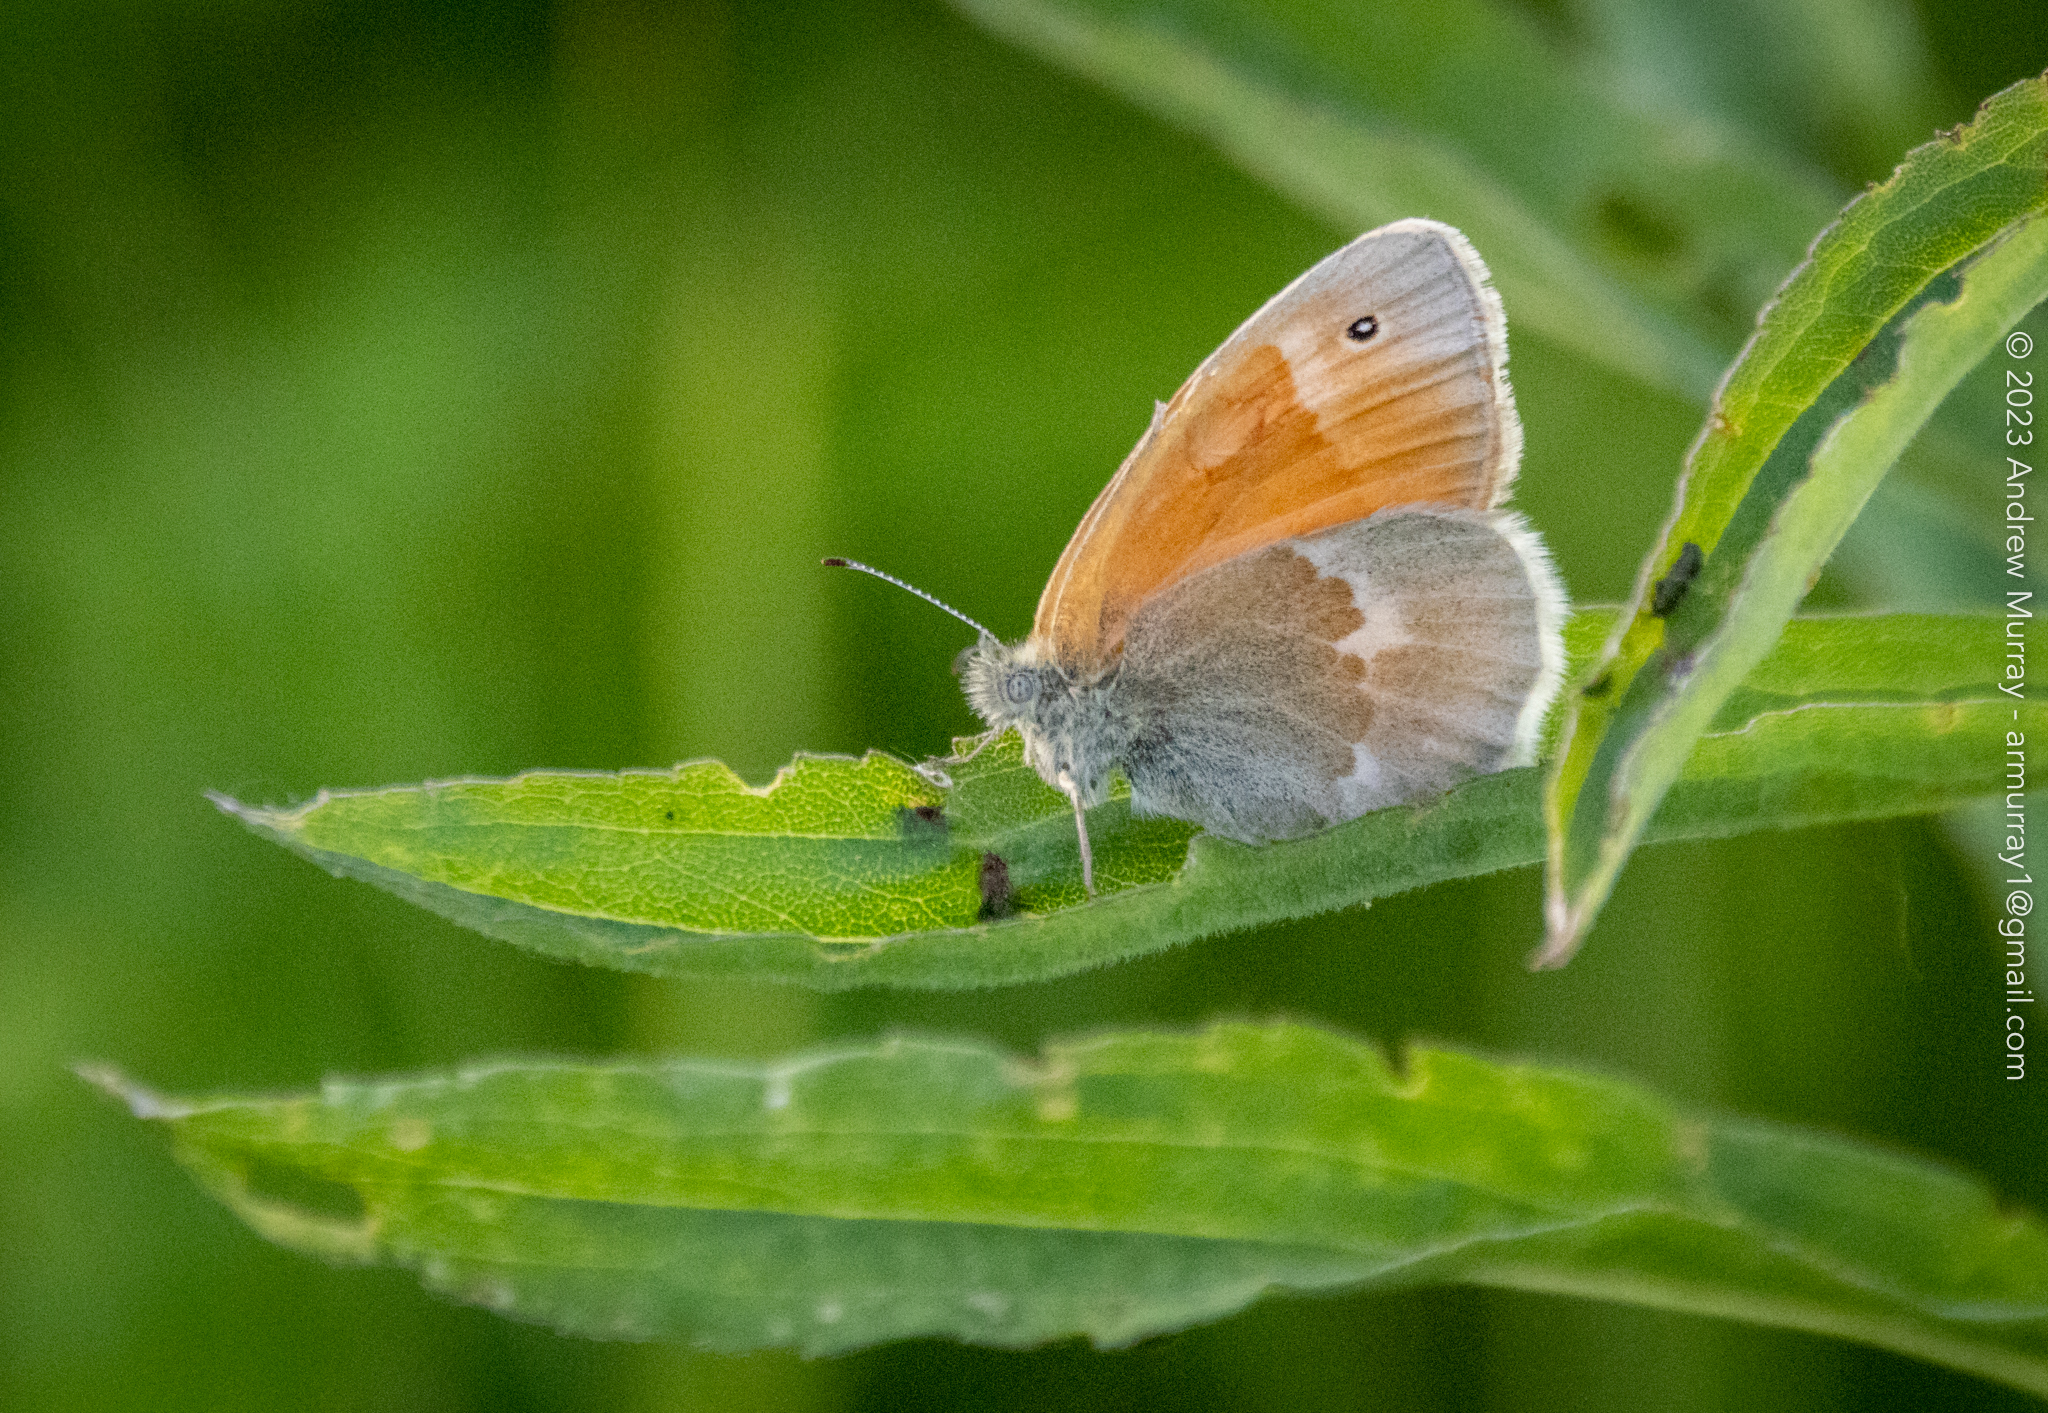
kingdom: Animalia
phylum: Arthropoda
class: Insecta
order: Lepidoptera
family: Nymphalidae
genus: Coenonympha
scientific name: Coenonympha california
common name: Common ringlet
